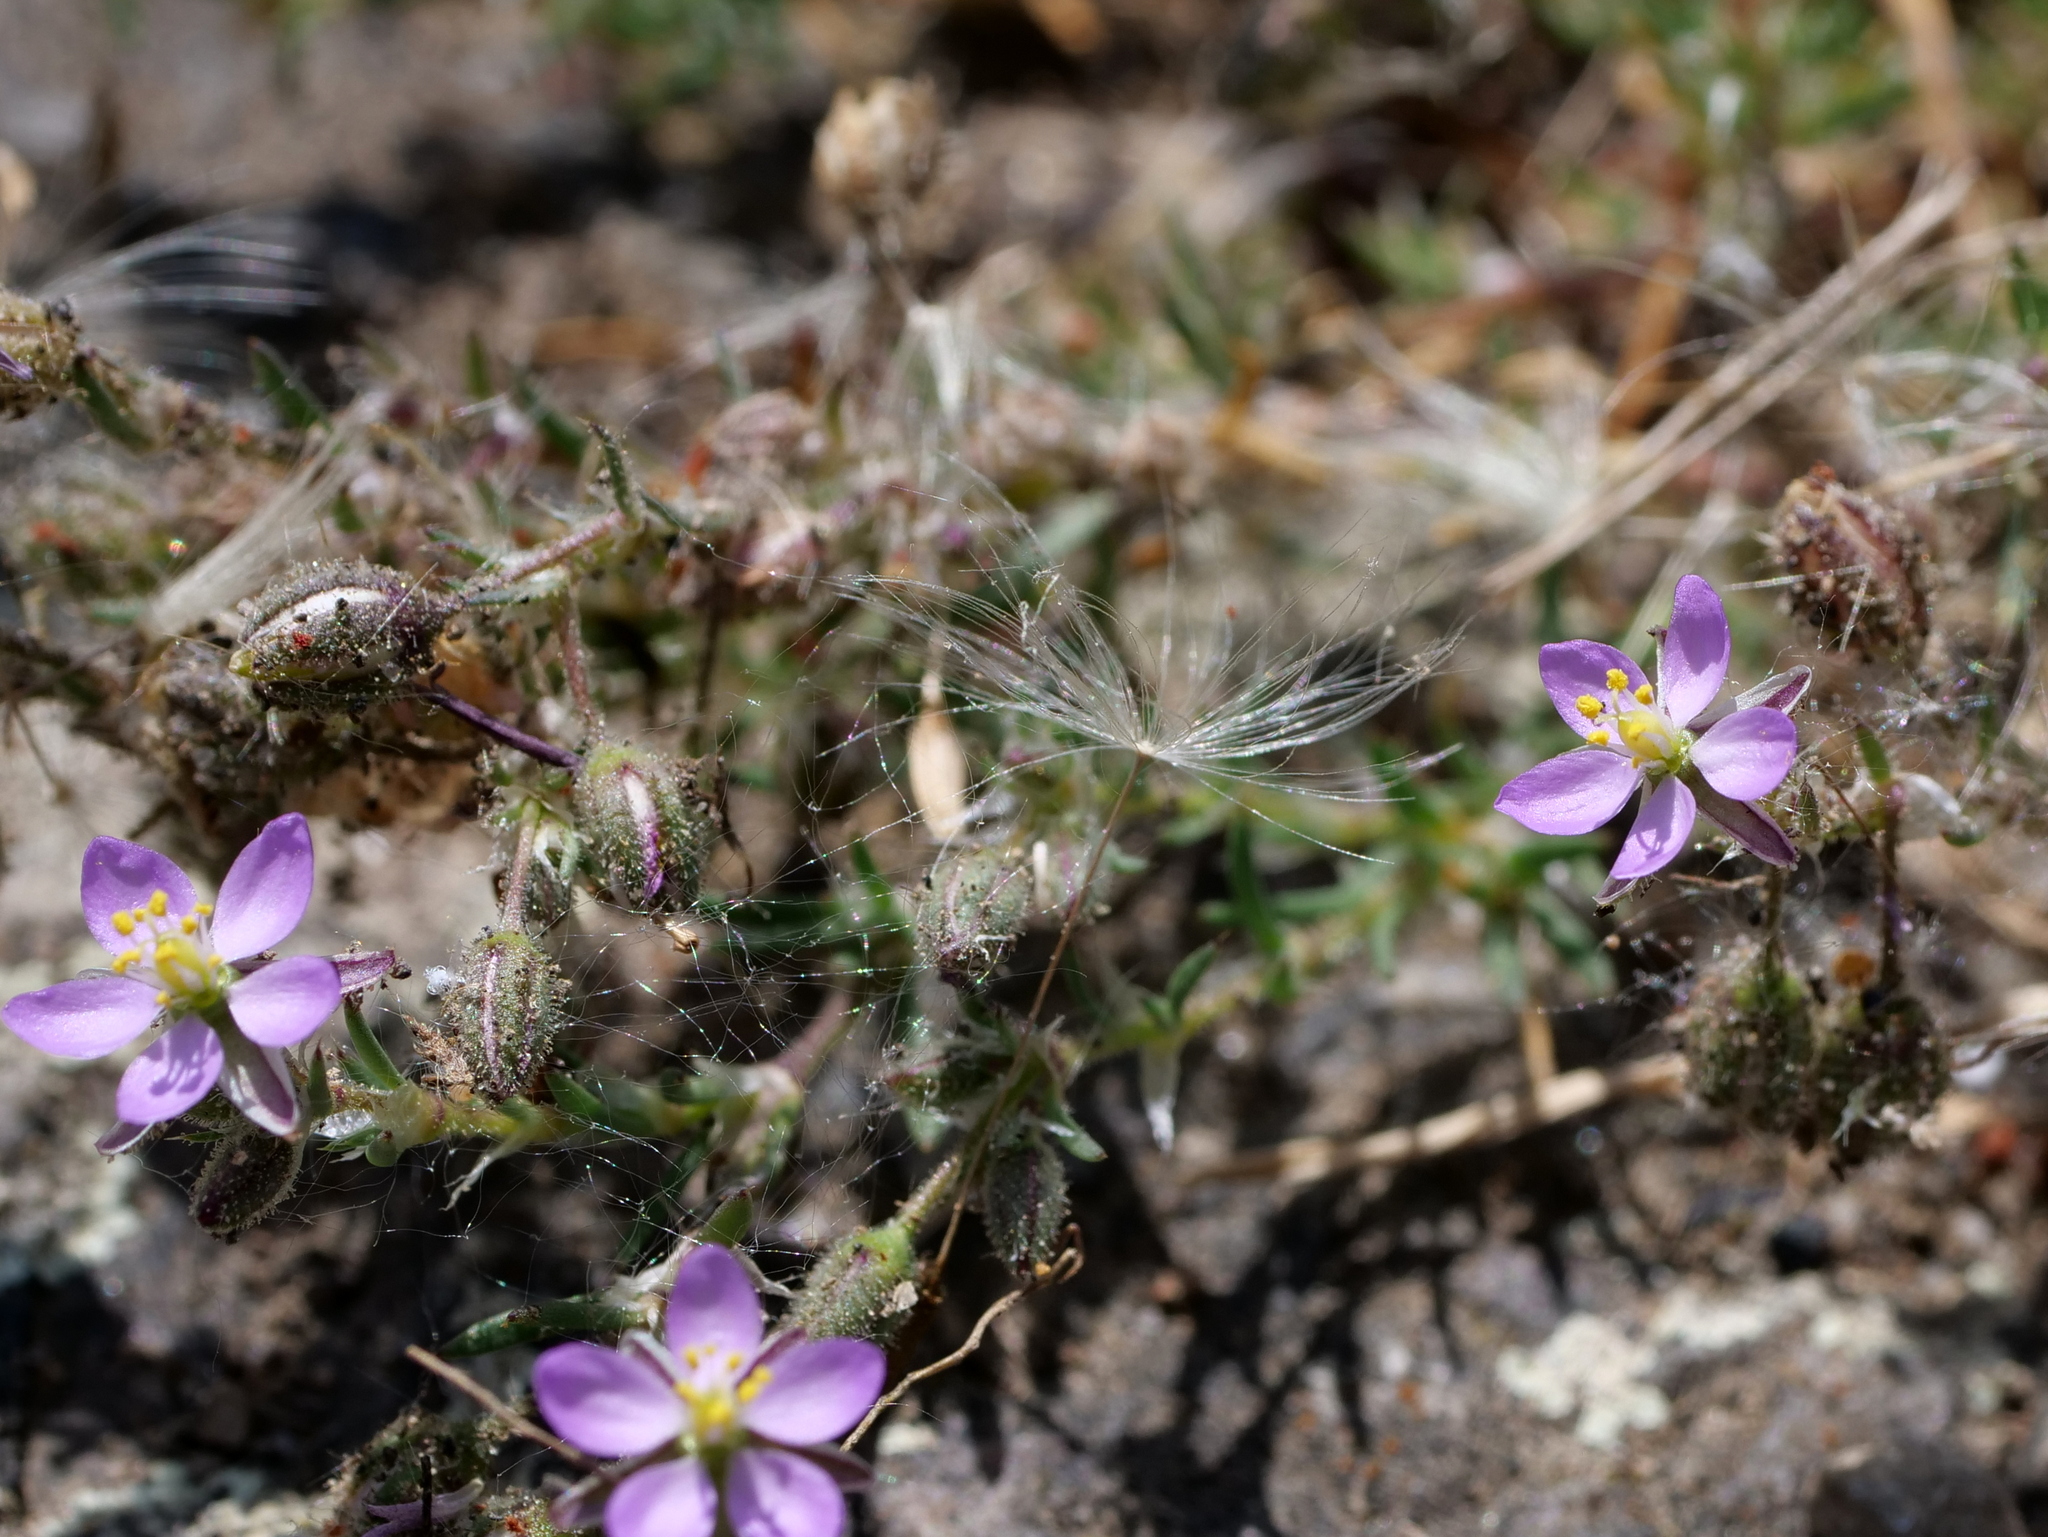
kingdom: Plantae
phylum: Tracheophyta
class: Magnoliopsida
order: Caryophyllales
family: Caryophyllaceae
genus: Spergularia
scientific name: Spergularia rubra
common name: Red sand-spurrey
